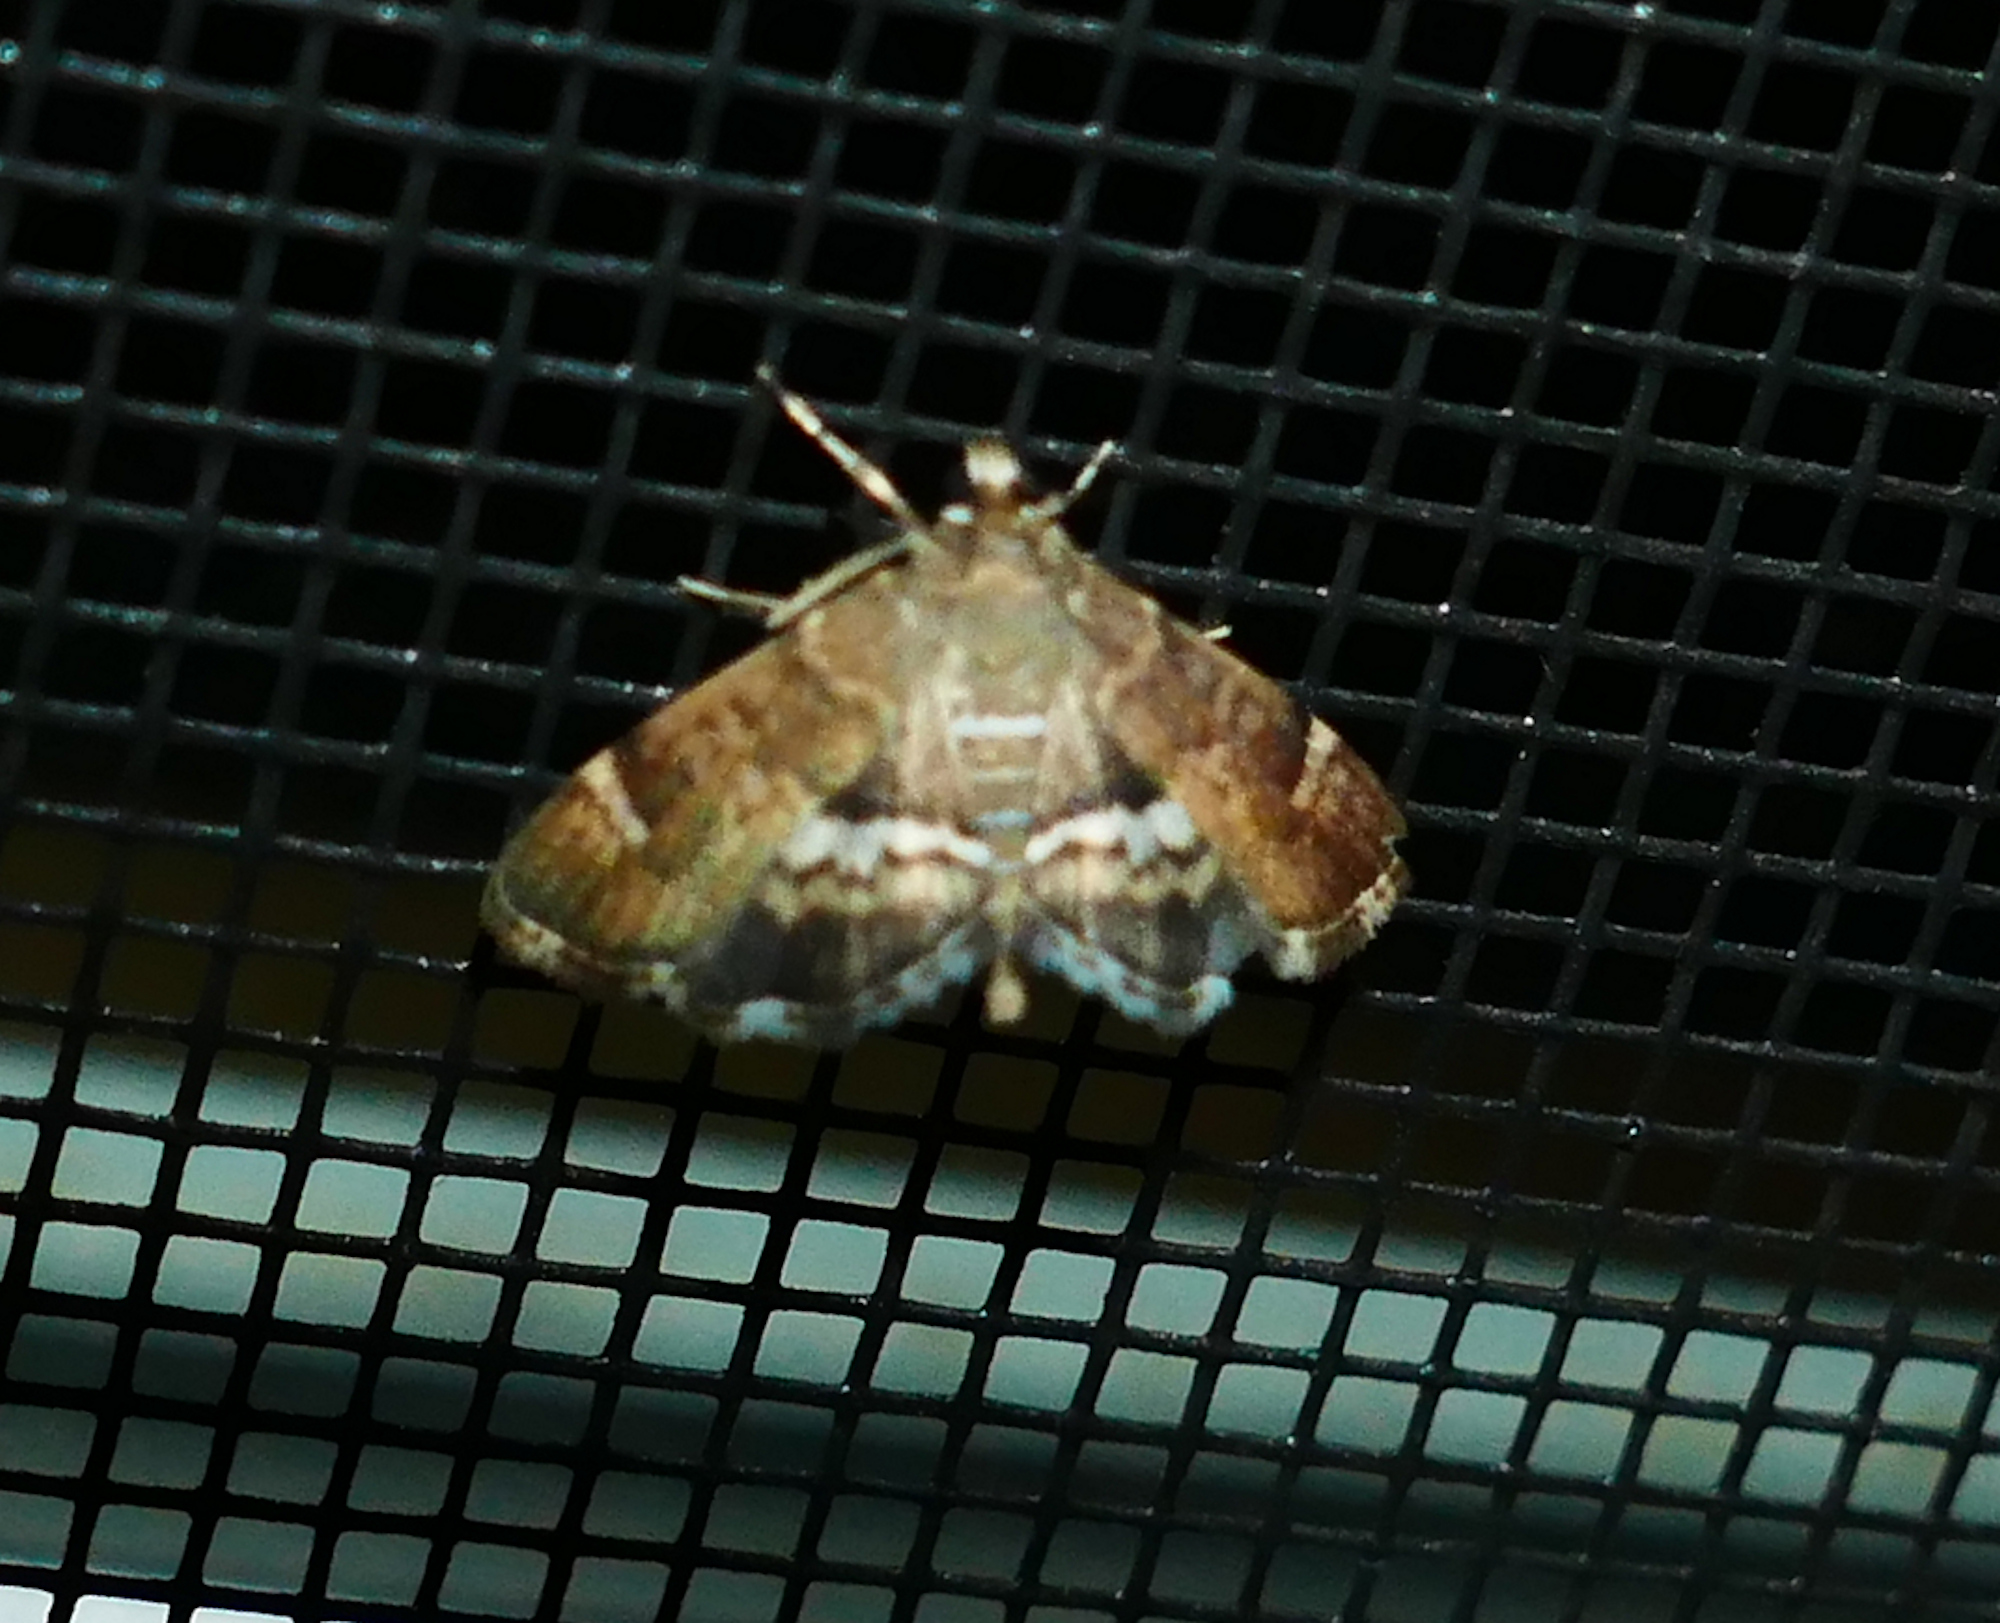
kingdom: Animalia
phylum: Arthropoda
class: Insecta
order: Lepidoptera
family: Crambidae
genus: Hymenia
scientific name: Hymenia perspectalis
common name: Spotted beet webworm
